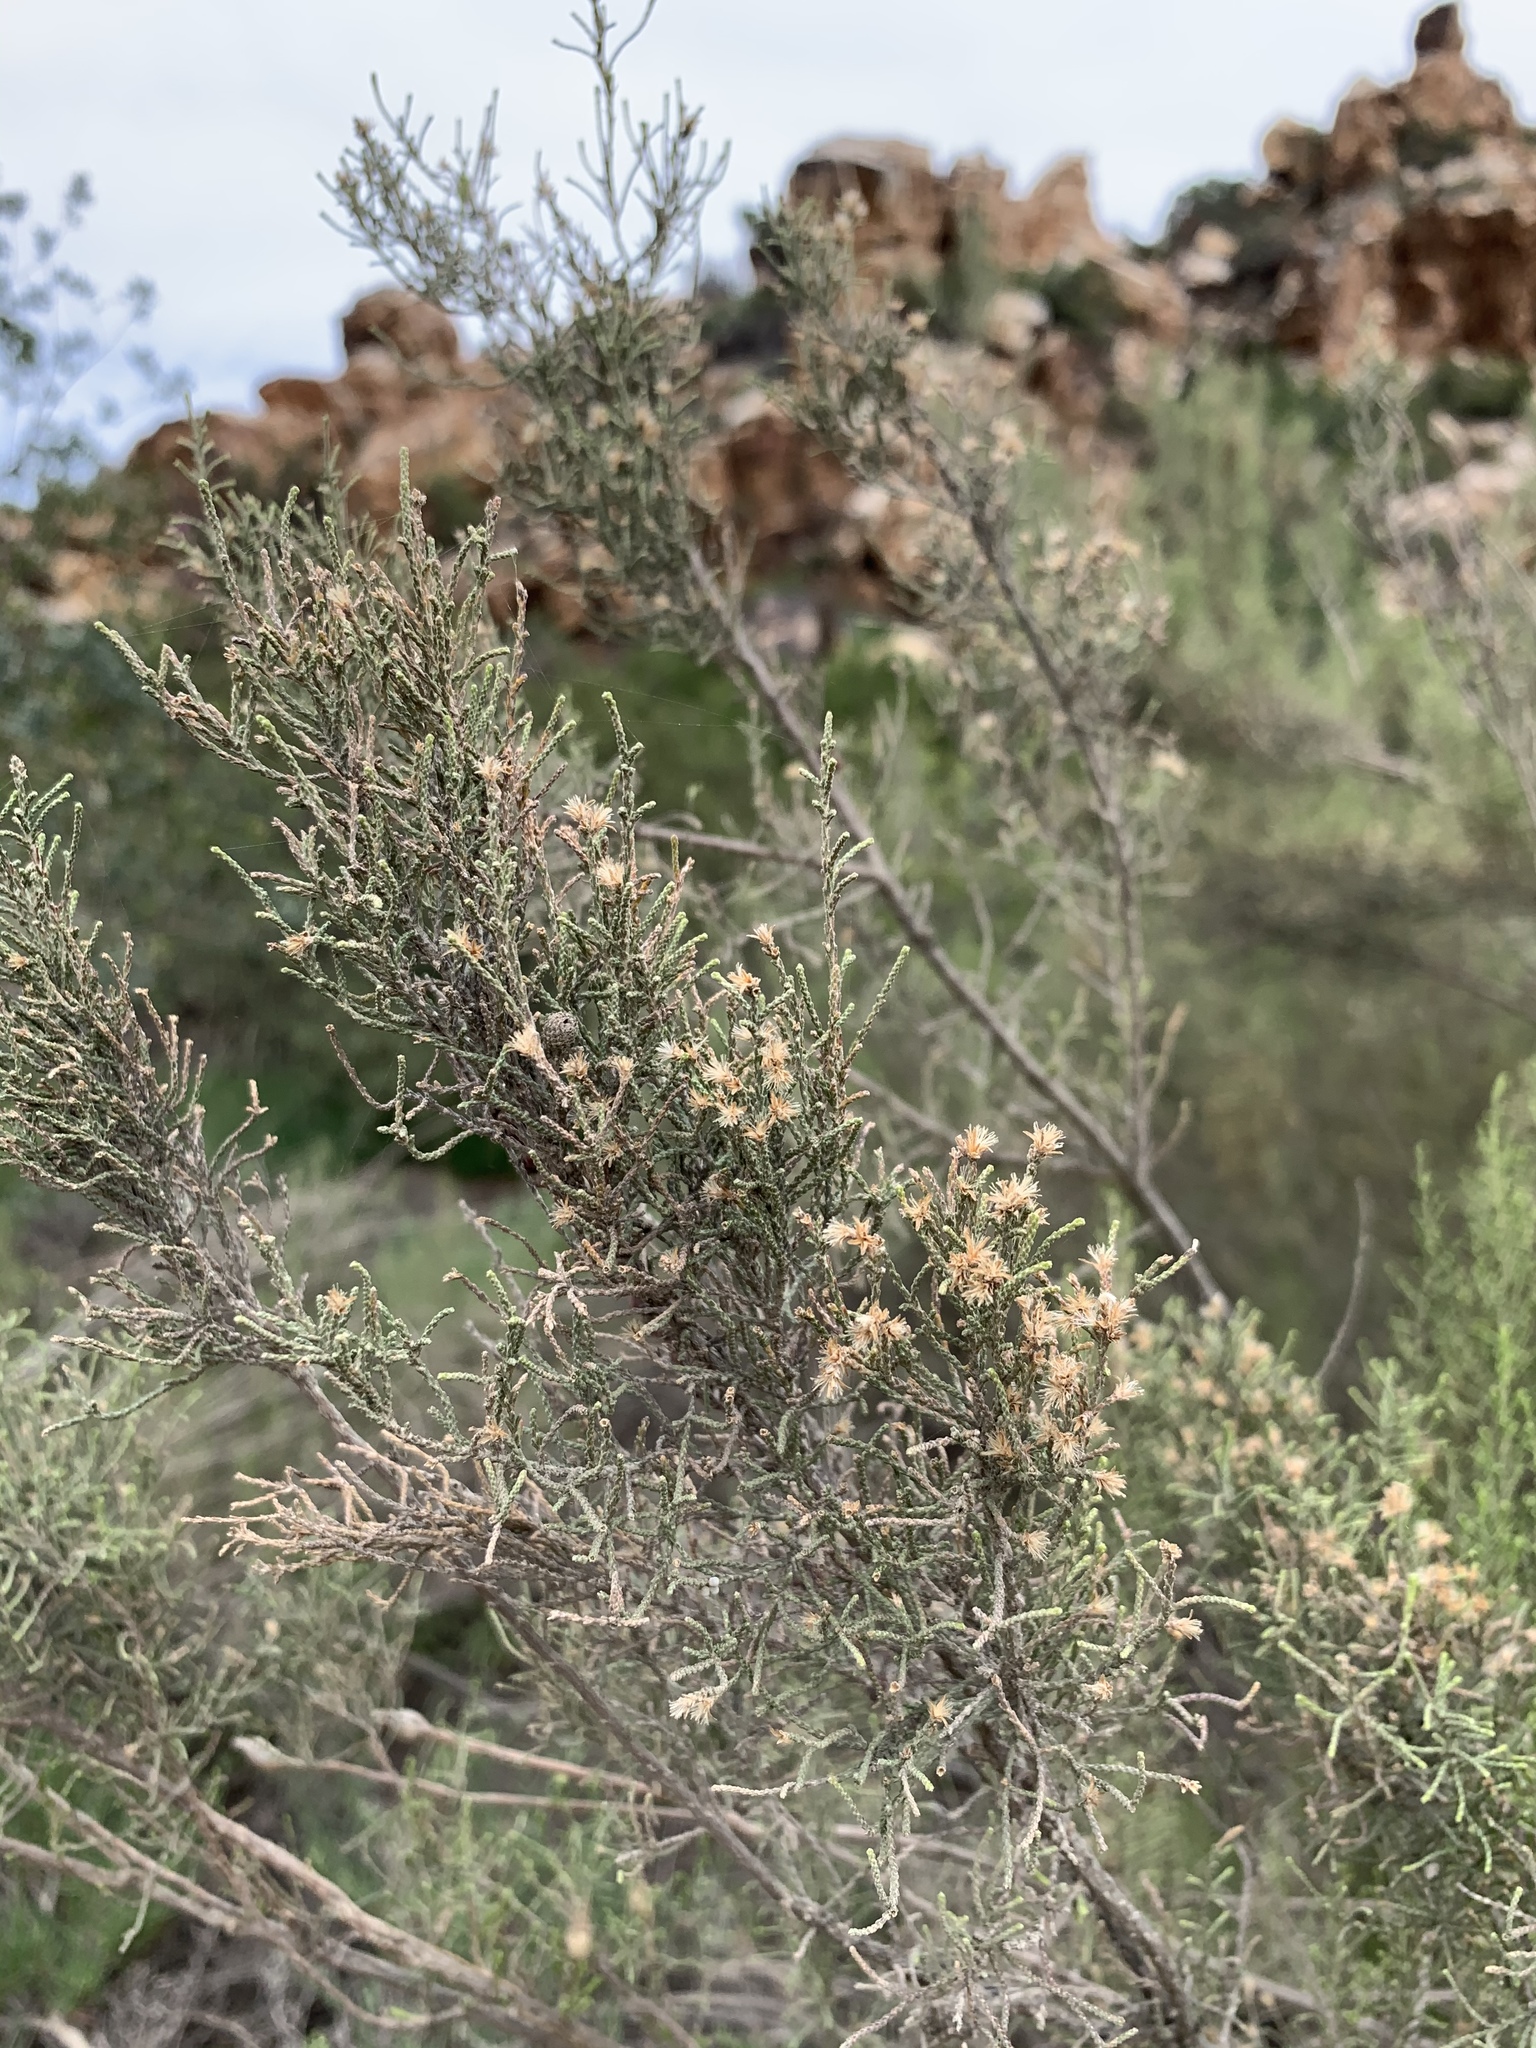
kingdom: Plantae
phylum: Tracheophyta
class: Magnoliopsida
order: Asterales
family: Asteraceae
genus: Dicerothamnus
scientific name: Dicerothamnus rhinocerotis
